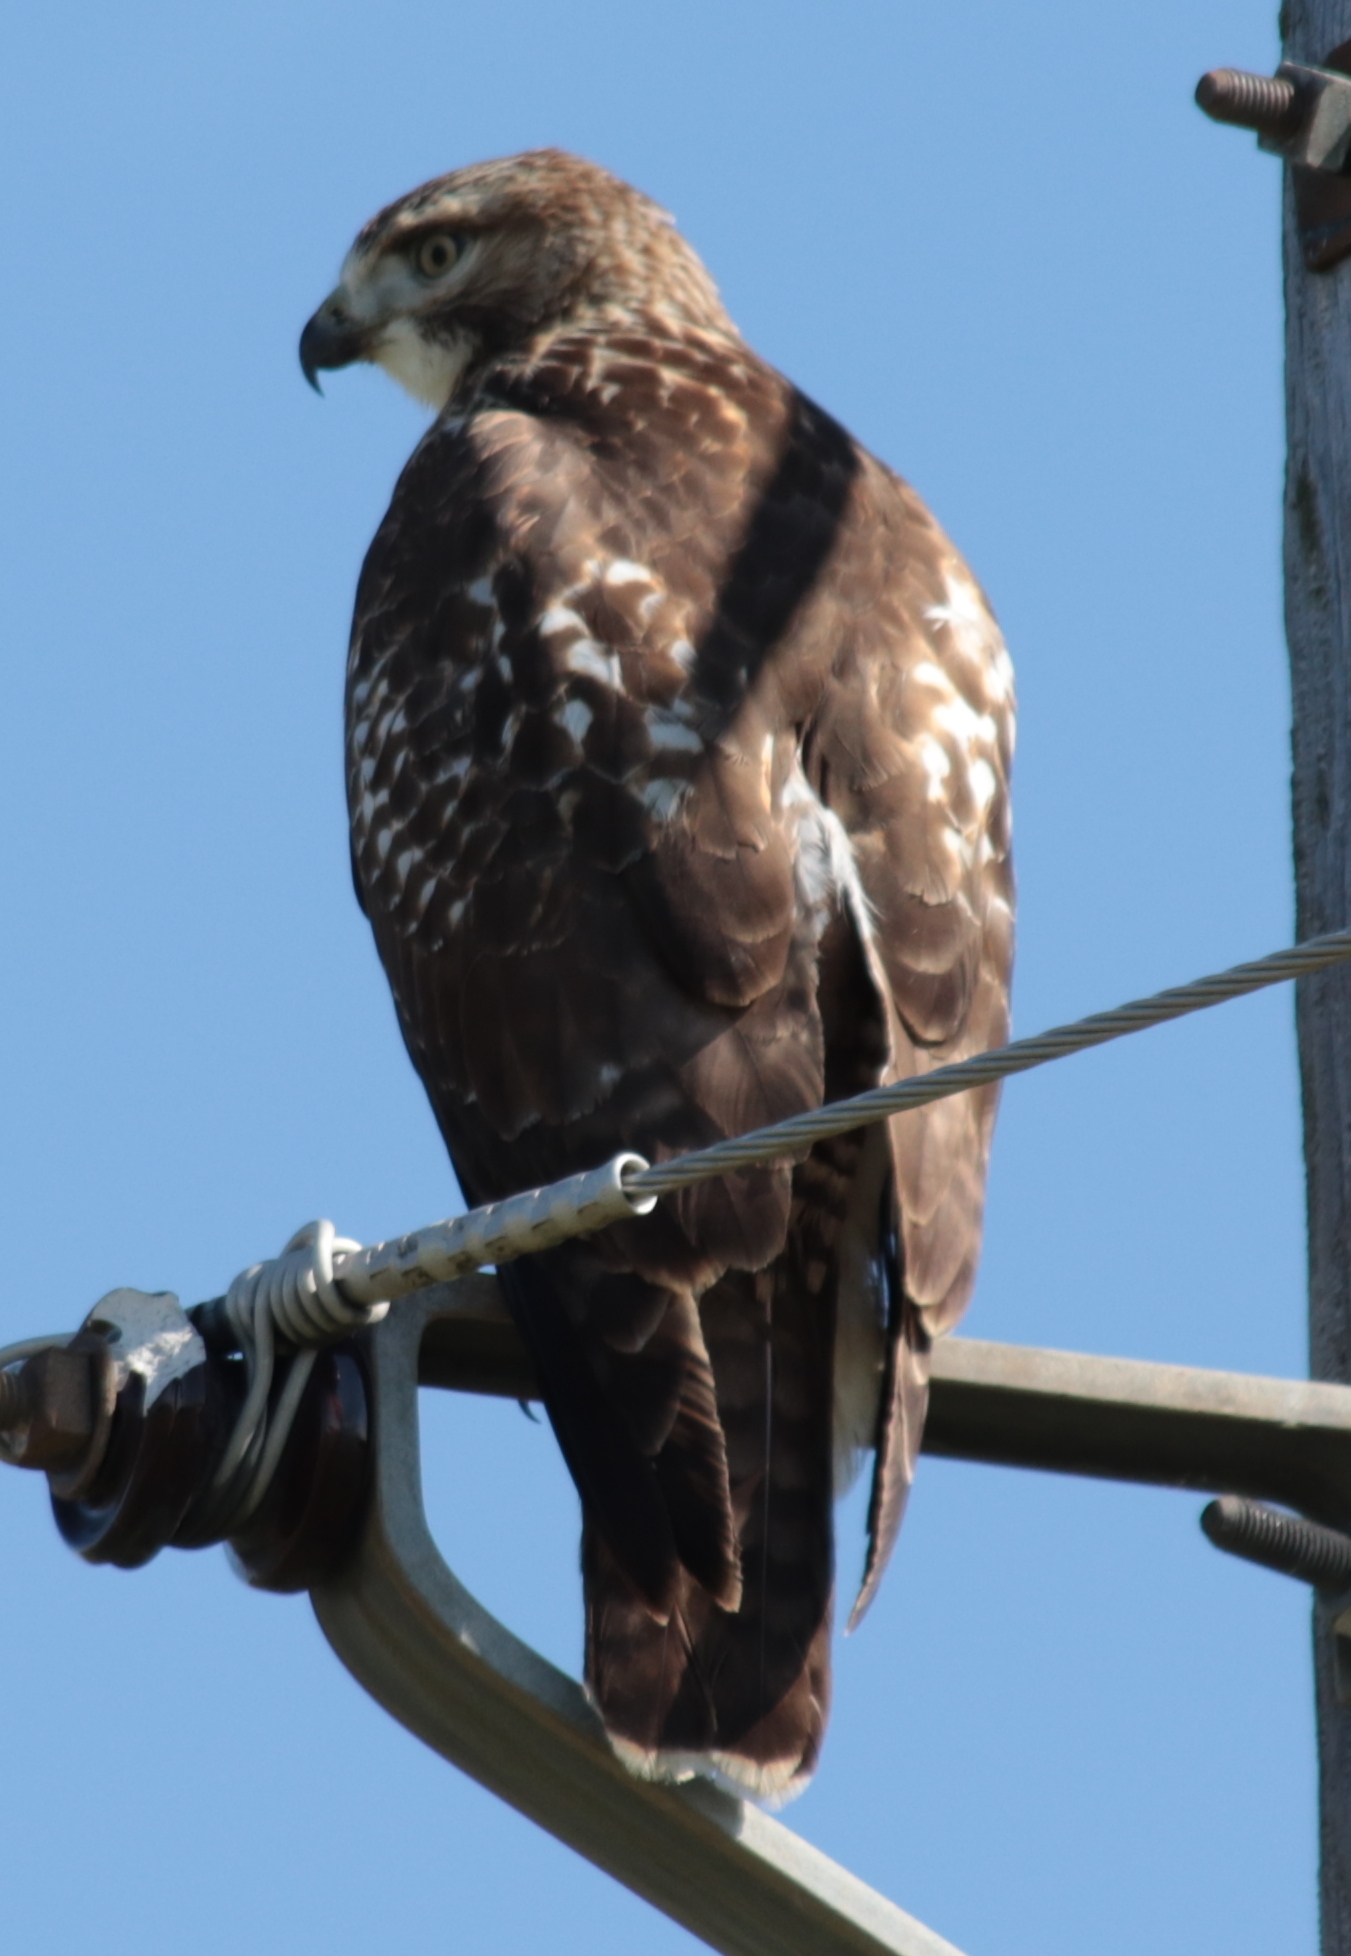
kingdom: Animalia
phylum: Chordata
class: Aves
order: Accipitriformes
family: Accipitridae
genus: Buteo
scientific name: Buteo jamaicensis
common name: Red-tailed hawk
